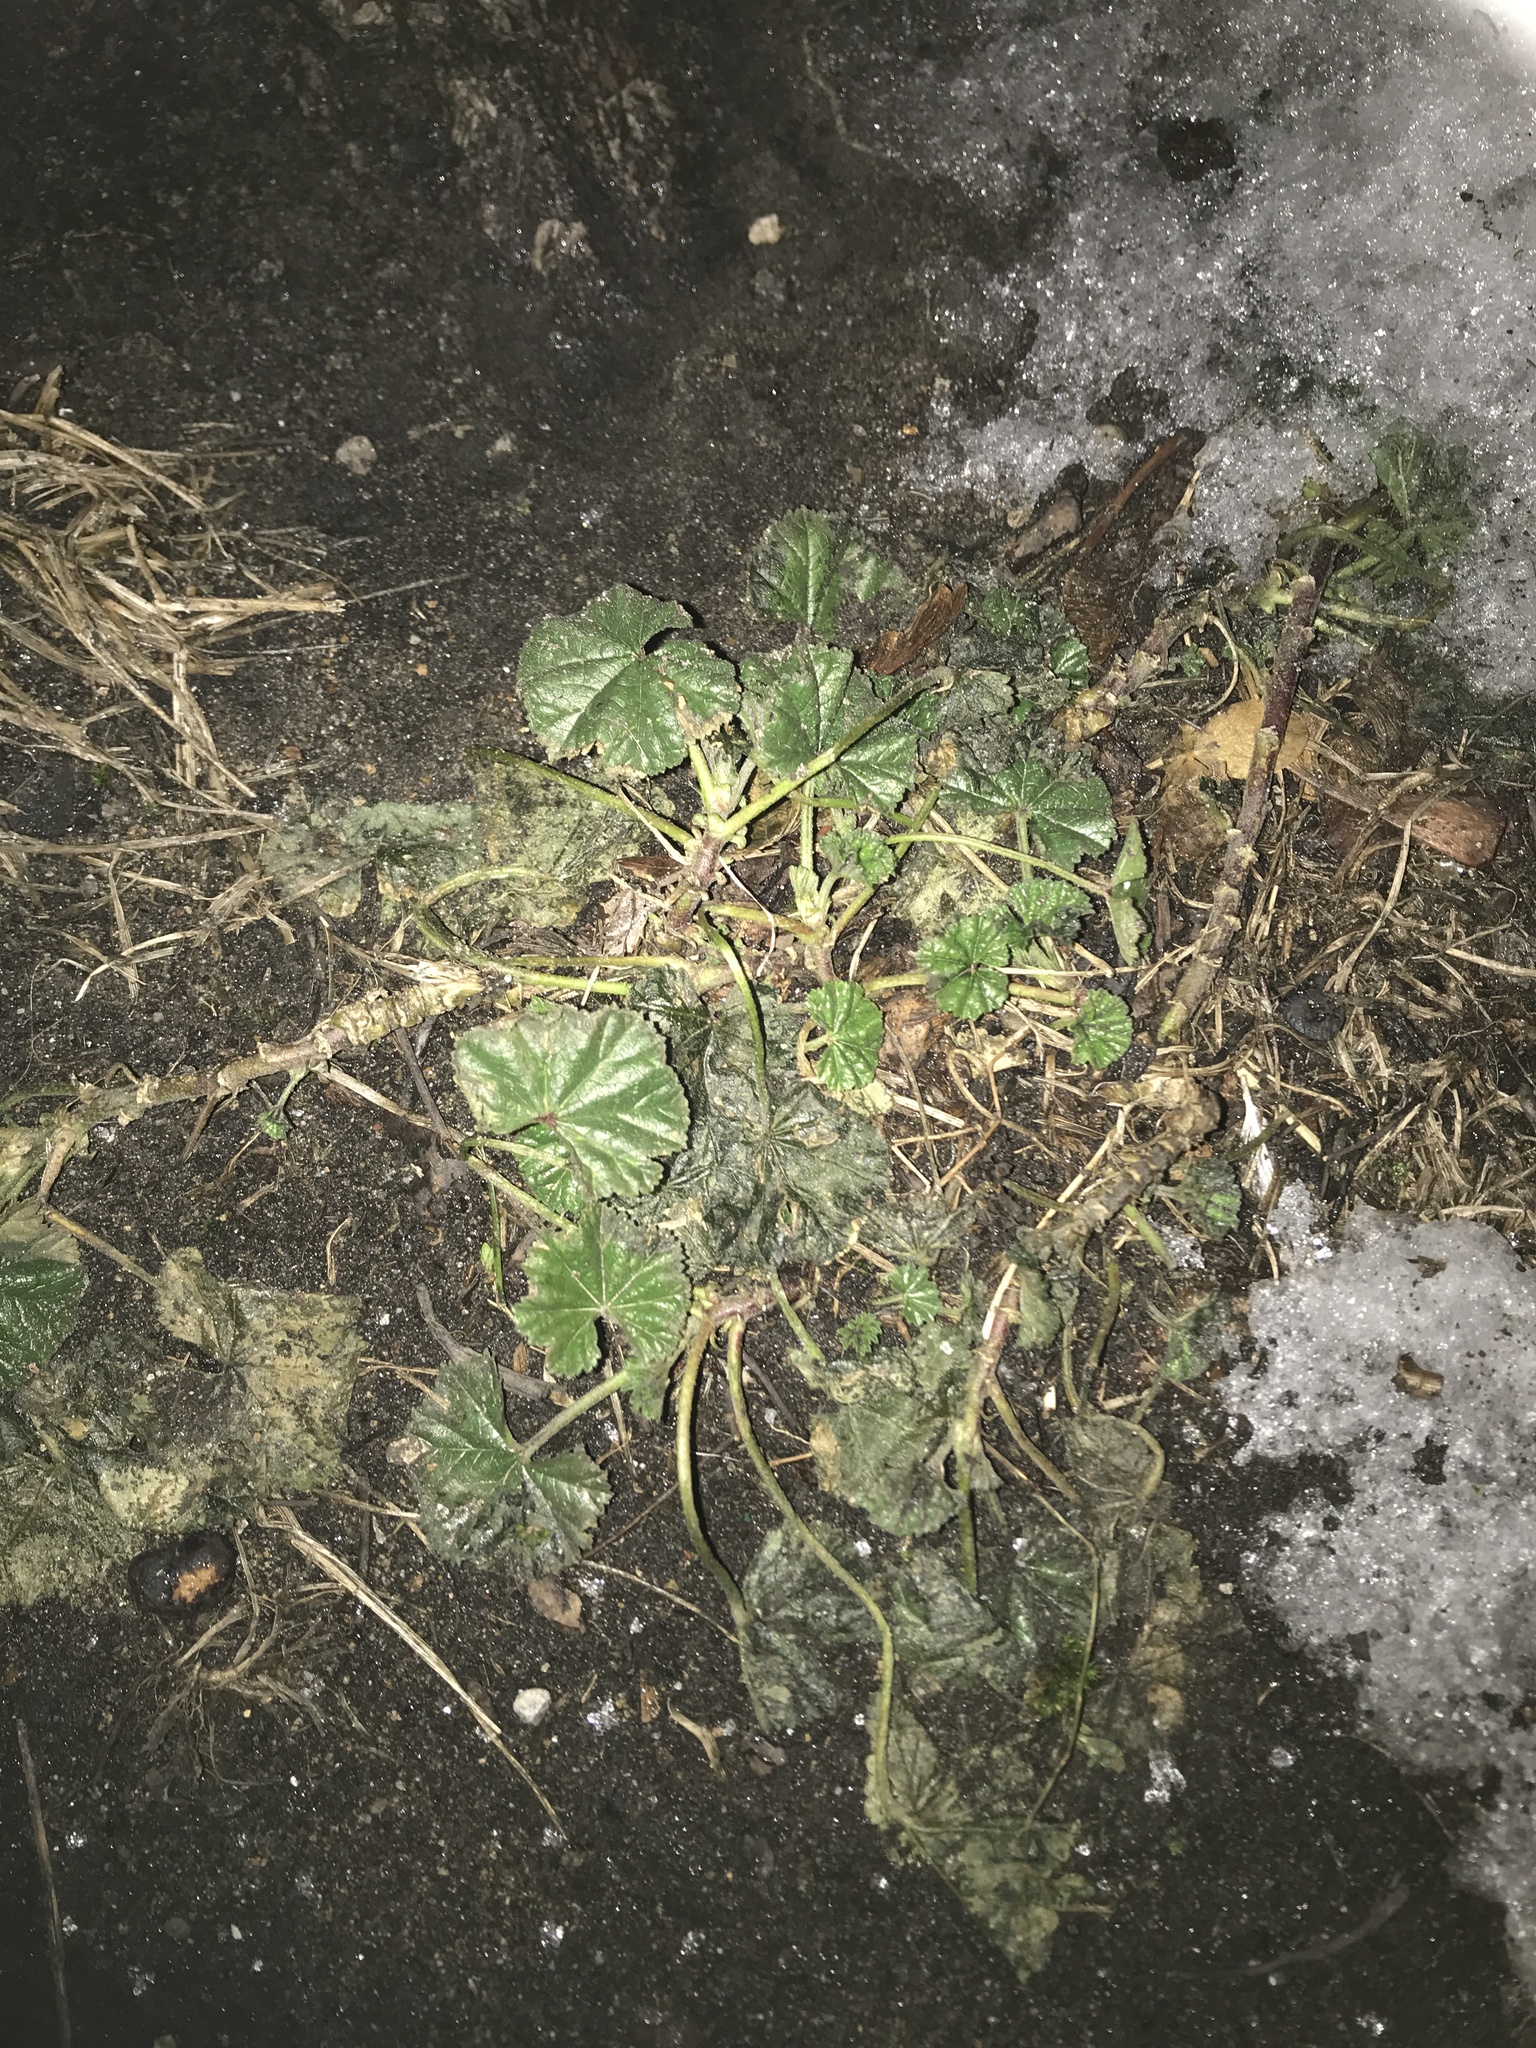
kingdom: Plantae
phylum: Tracheophyta
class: Magnoliopsida
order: Malvales
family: Malvaceae
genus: Malva
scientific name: Malva neglecta
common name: Common mallow
